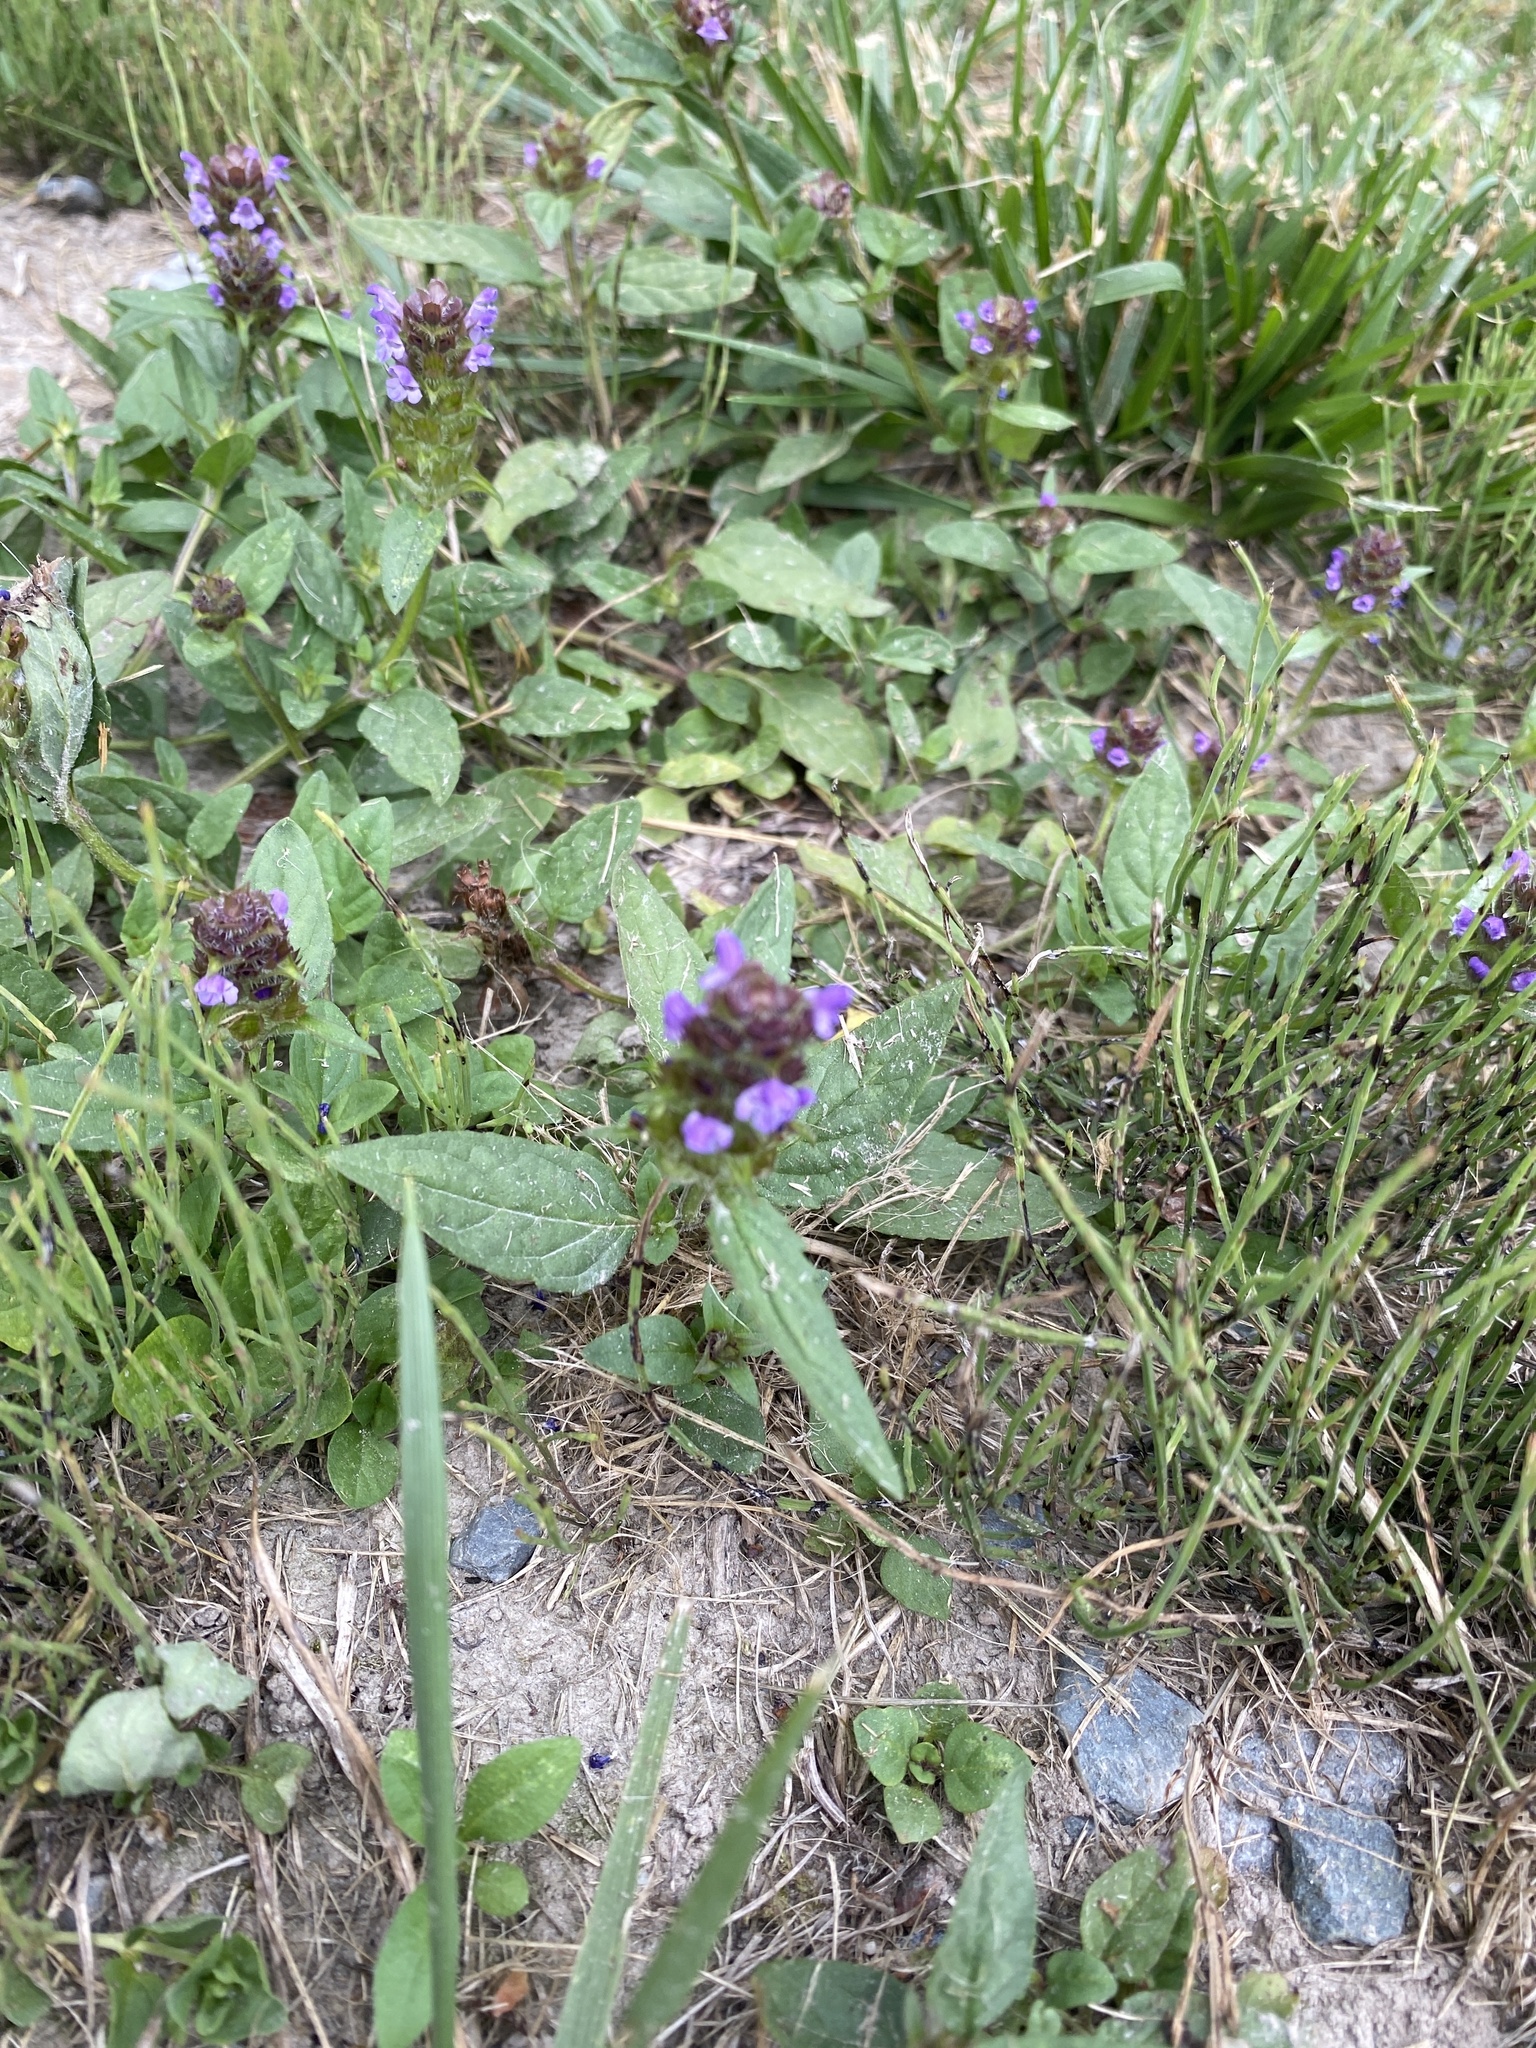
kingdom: Plantae
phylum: Tracheophyta
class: Magnoliopsida
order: Lamiales
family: Lamiaceae
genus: Prunella
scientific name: Prunella vulgaris
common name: Heal-all
